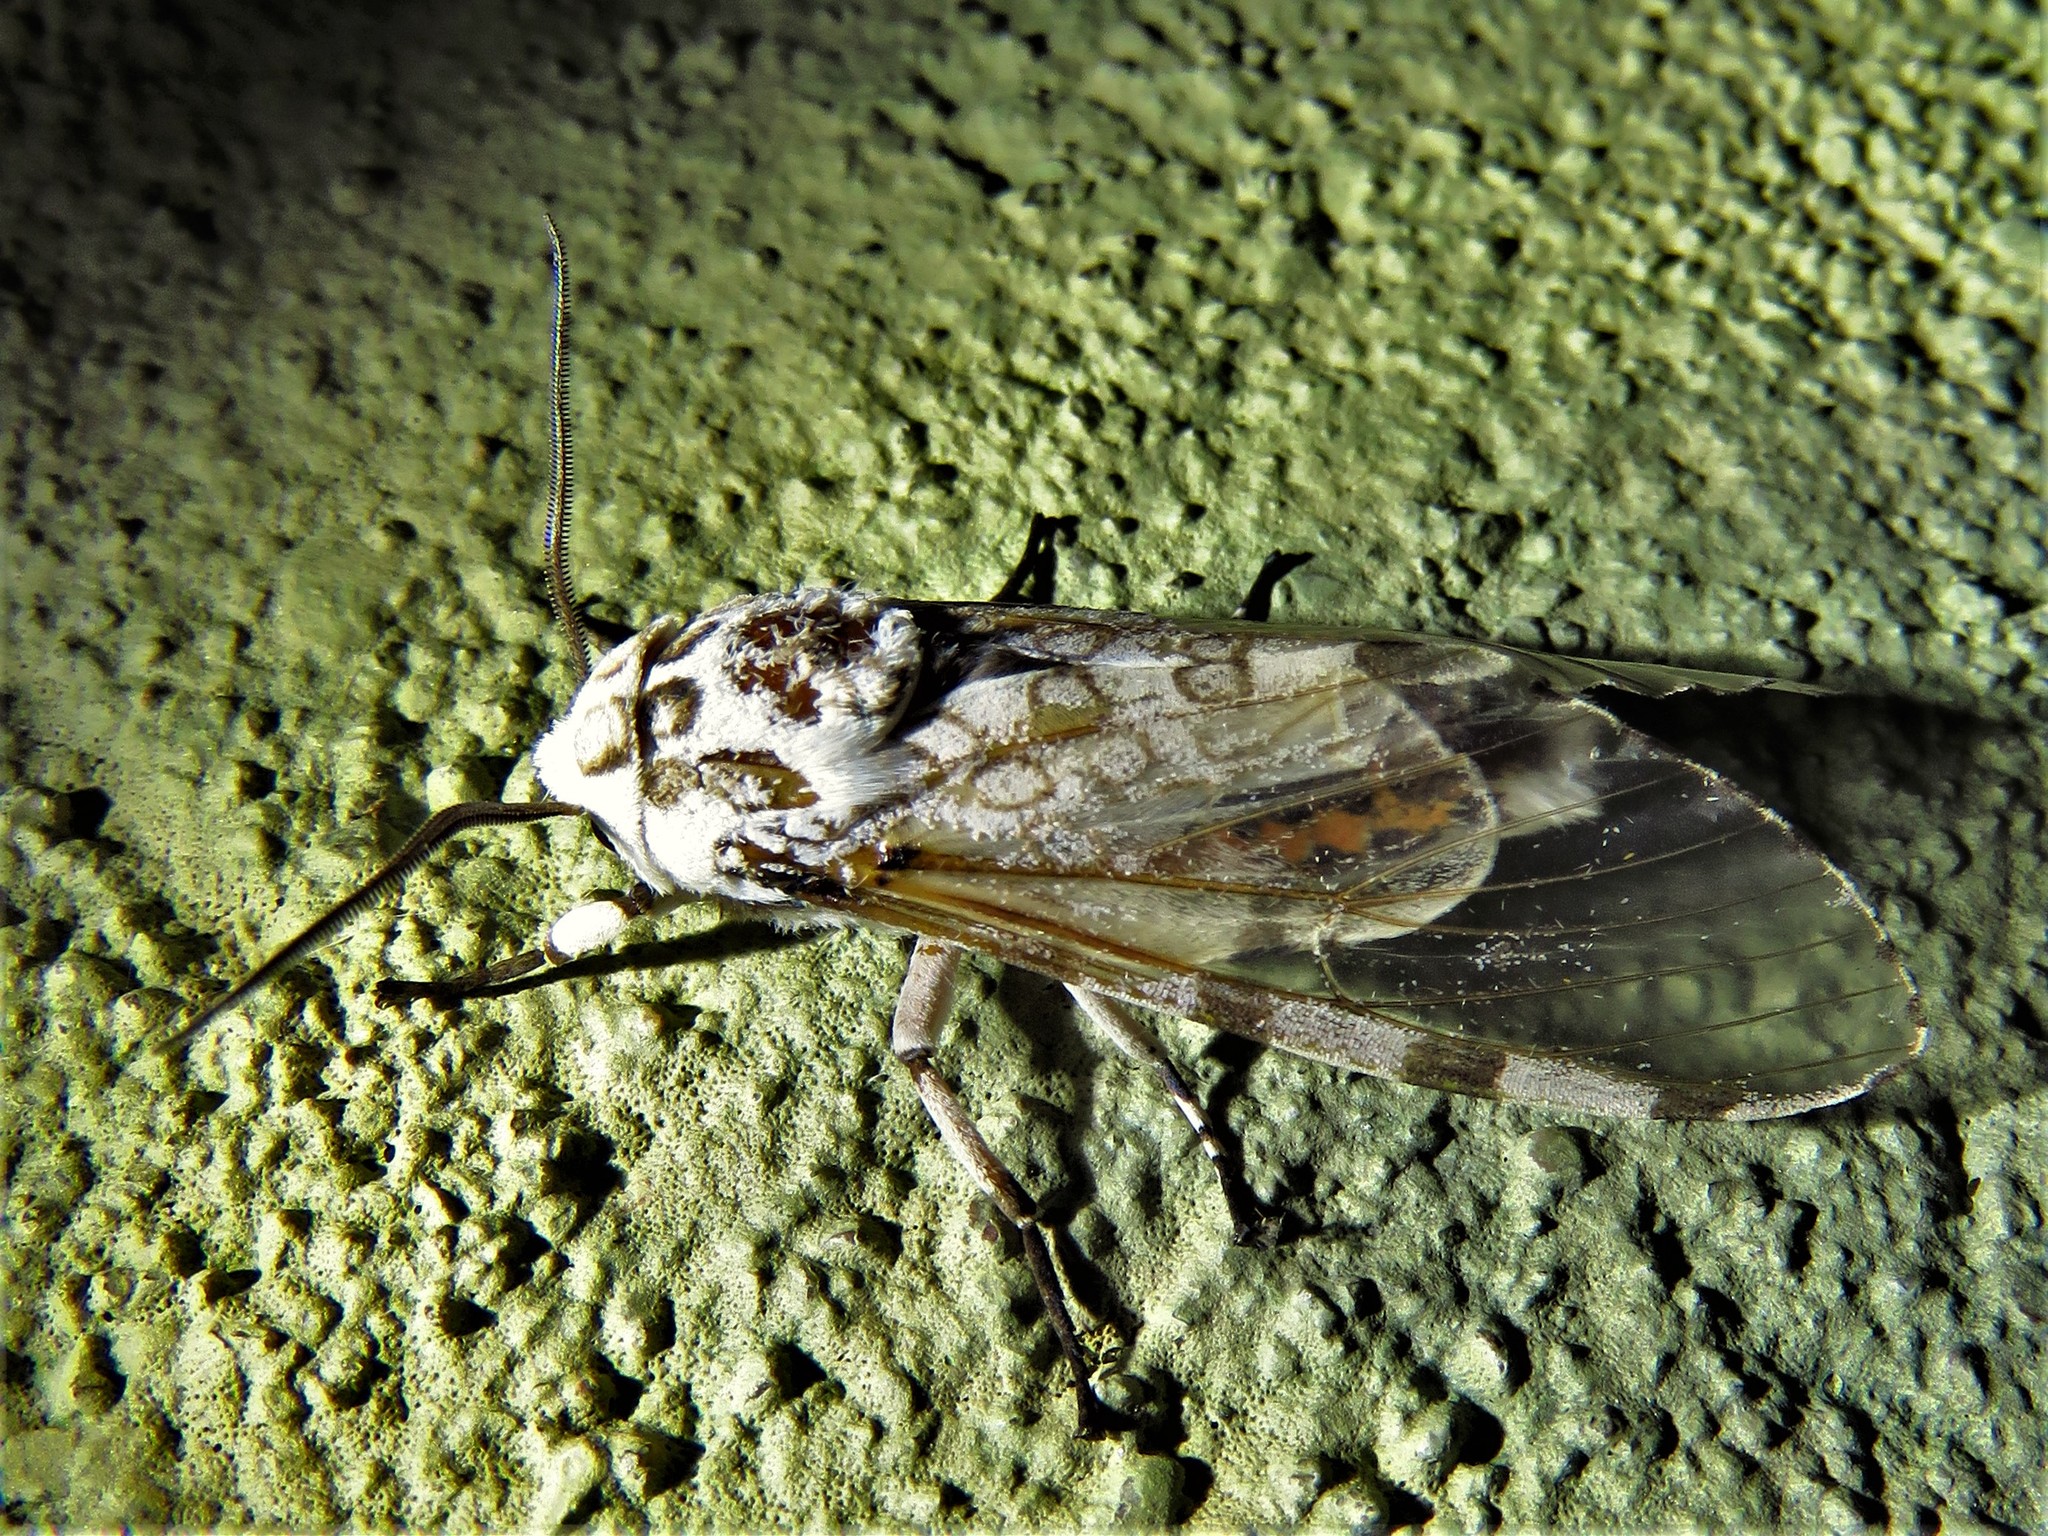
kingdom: Animalia
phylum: Arthropoda
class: Insecta
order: Lepidoptera
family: Erebidae
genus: Hypercompe
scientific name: Hypercompe icasia
